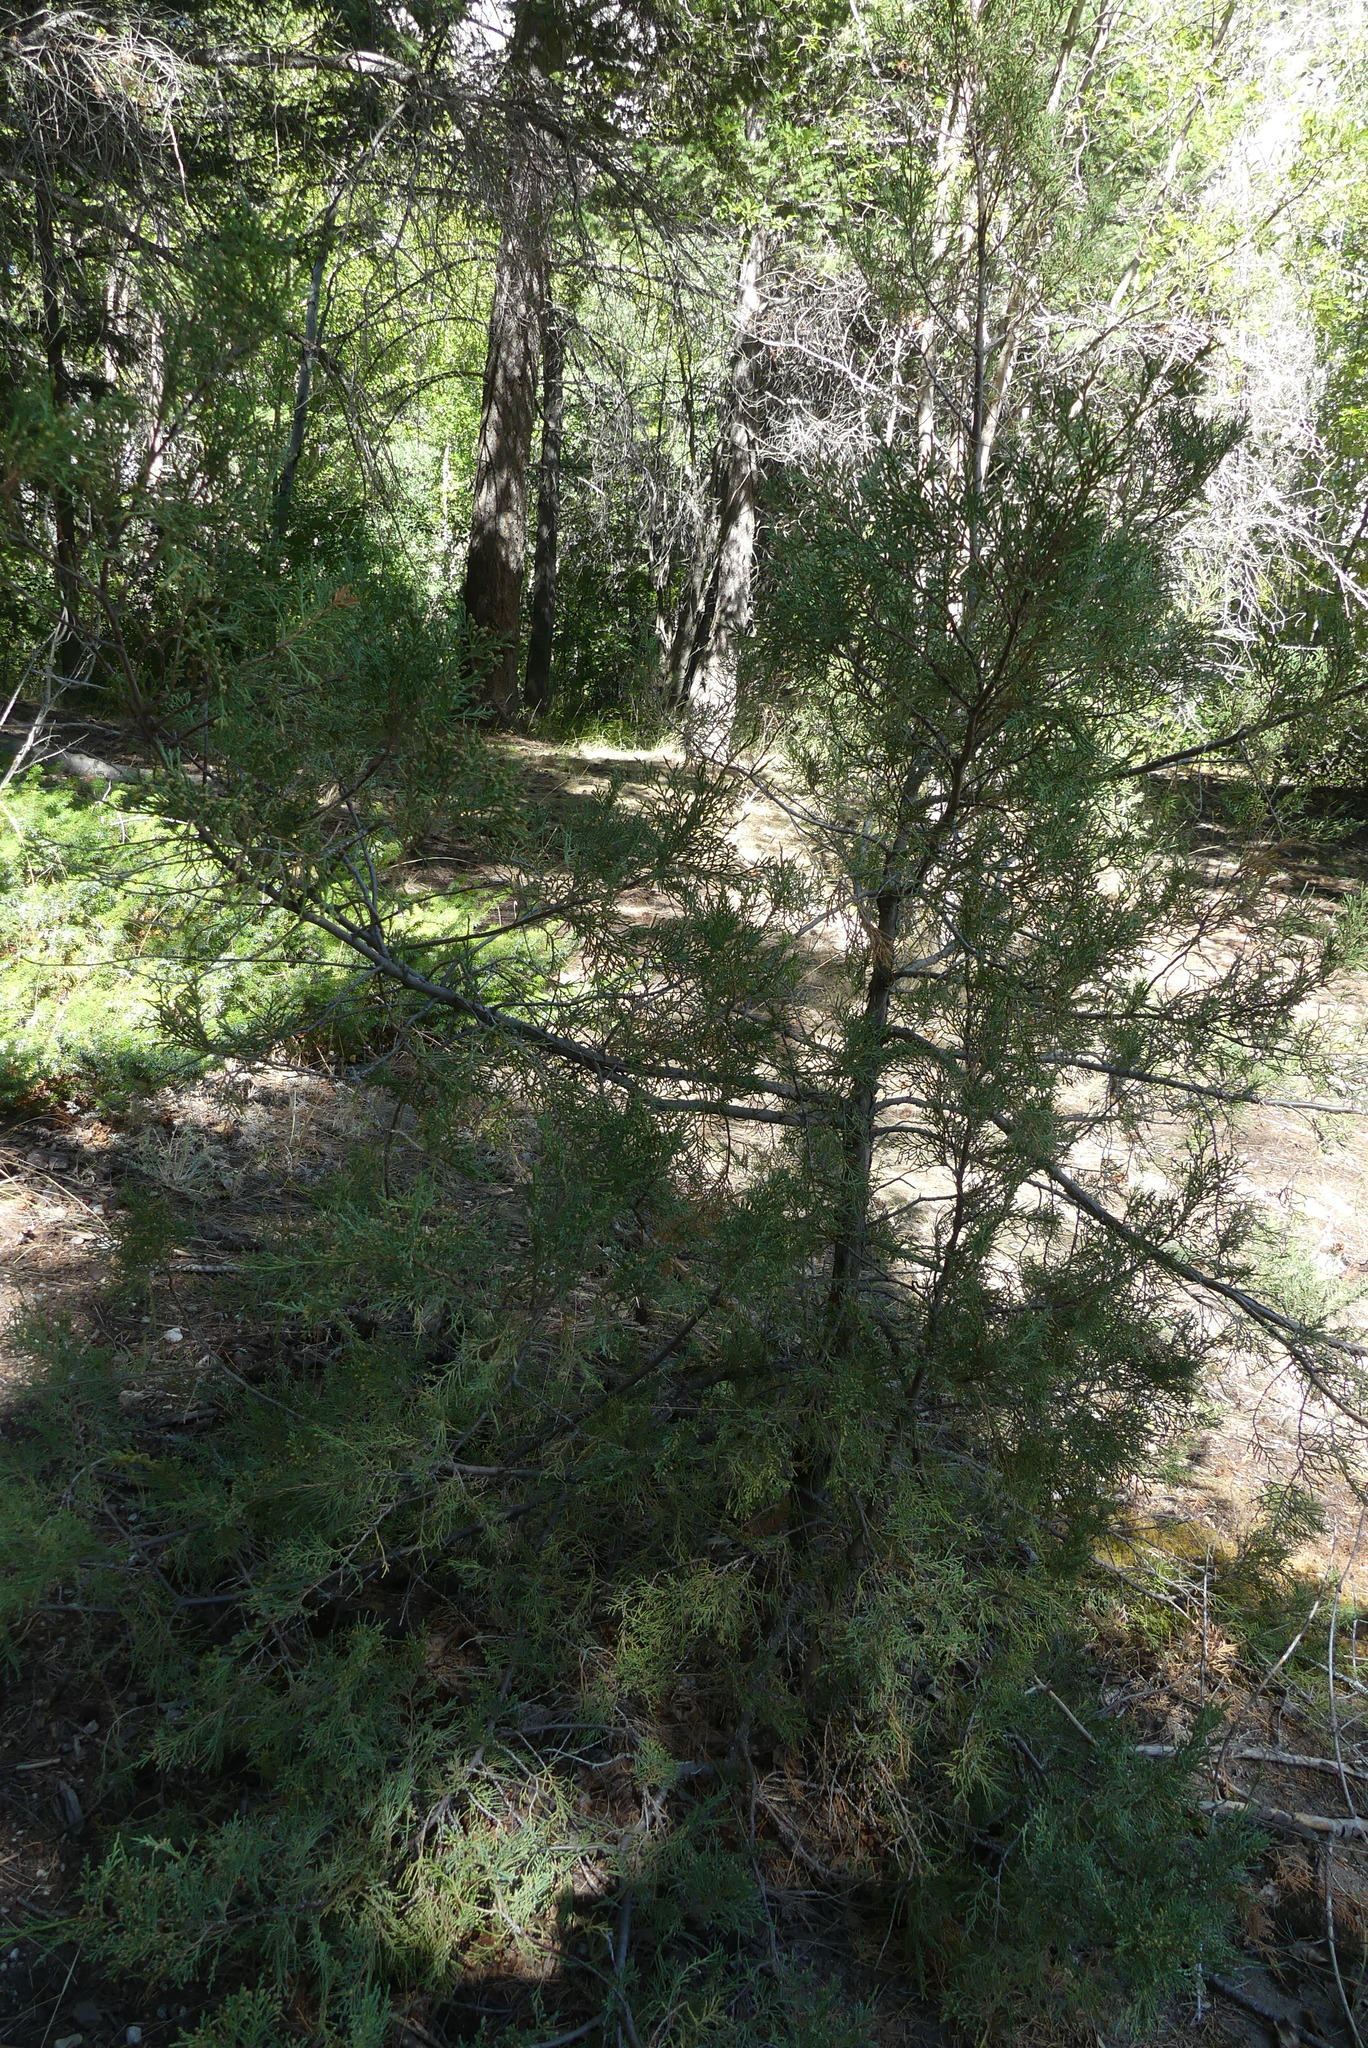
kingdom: Plantae
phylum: Tracheophyta
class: Pinopsida
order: Pinales
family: Cupressaceae
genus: Juniperus
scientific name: Juniperus scopulorum
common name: Rocky mountain juniper
